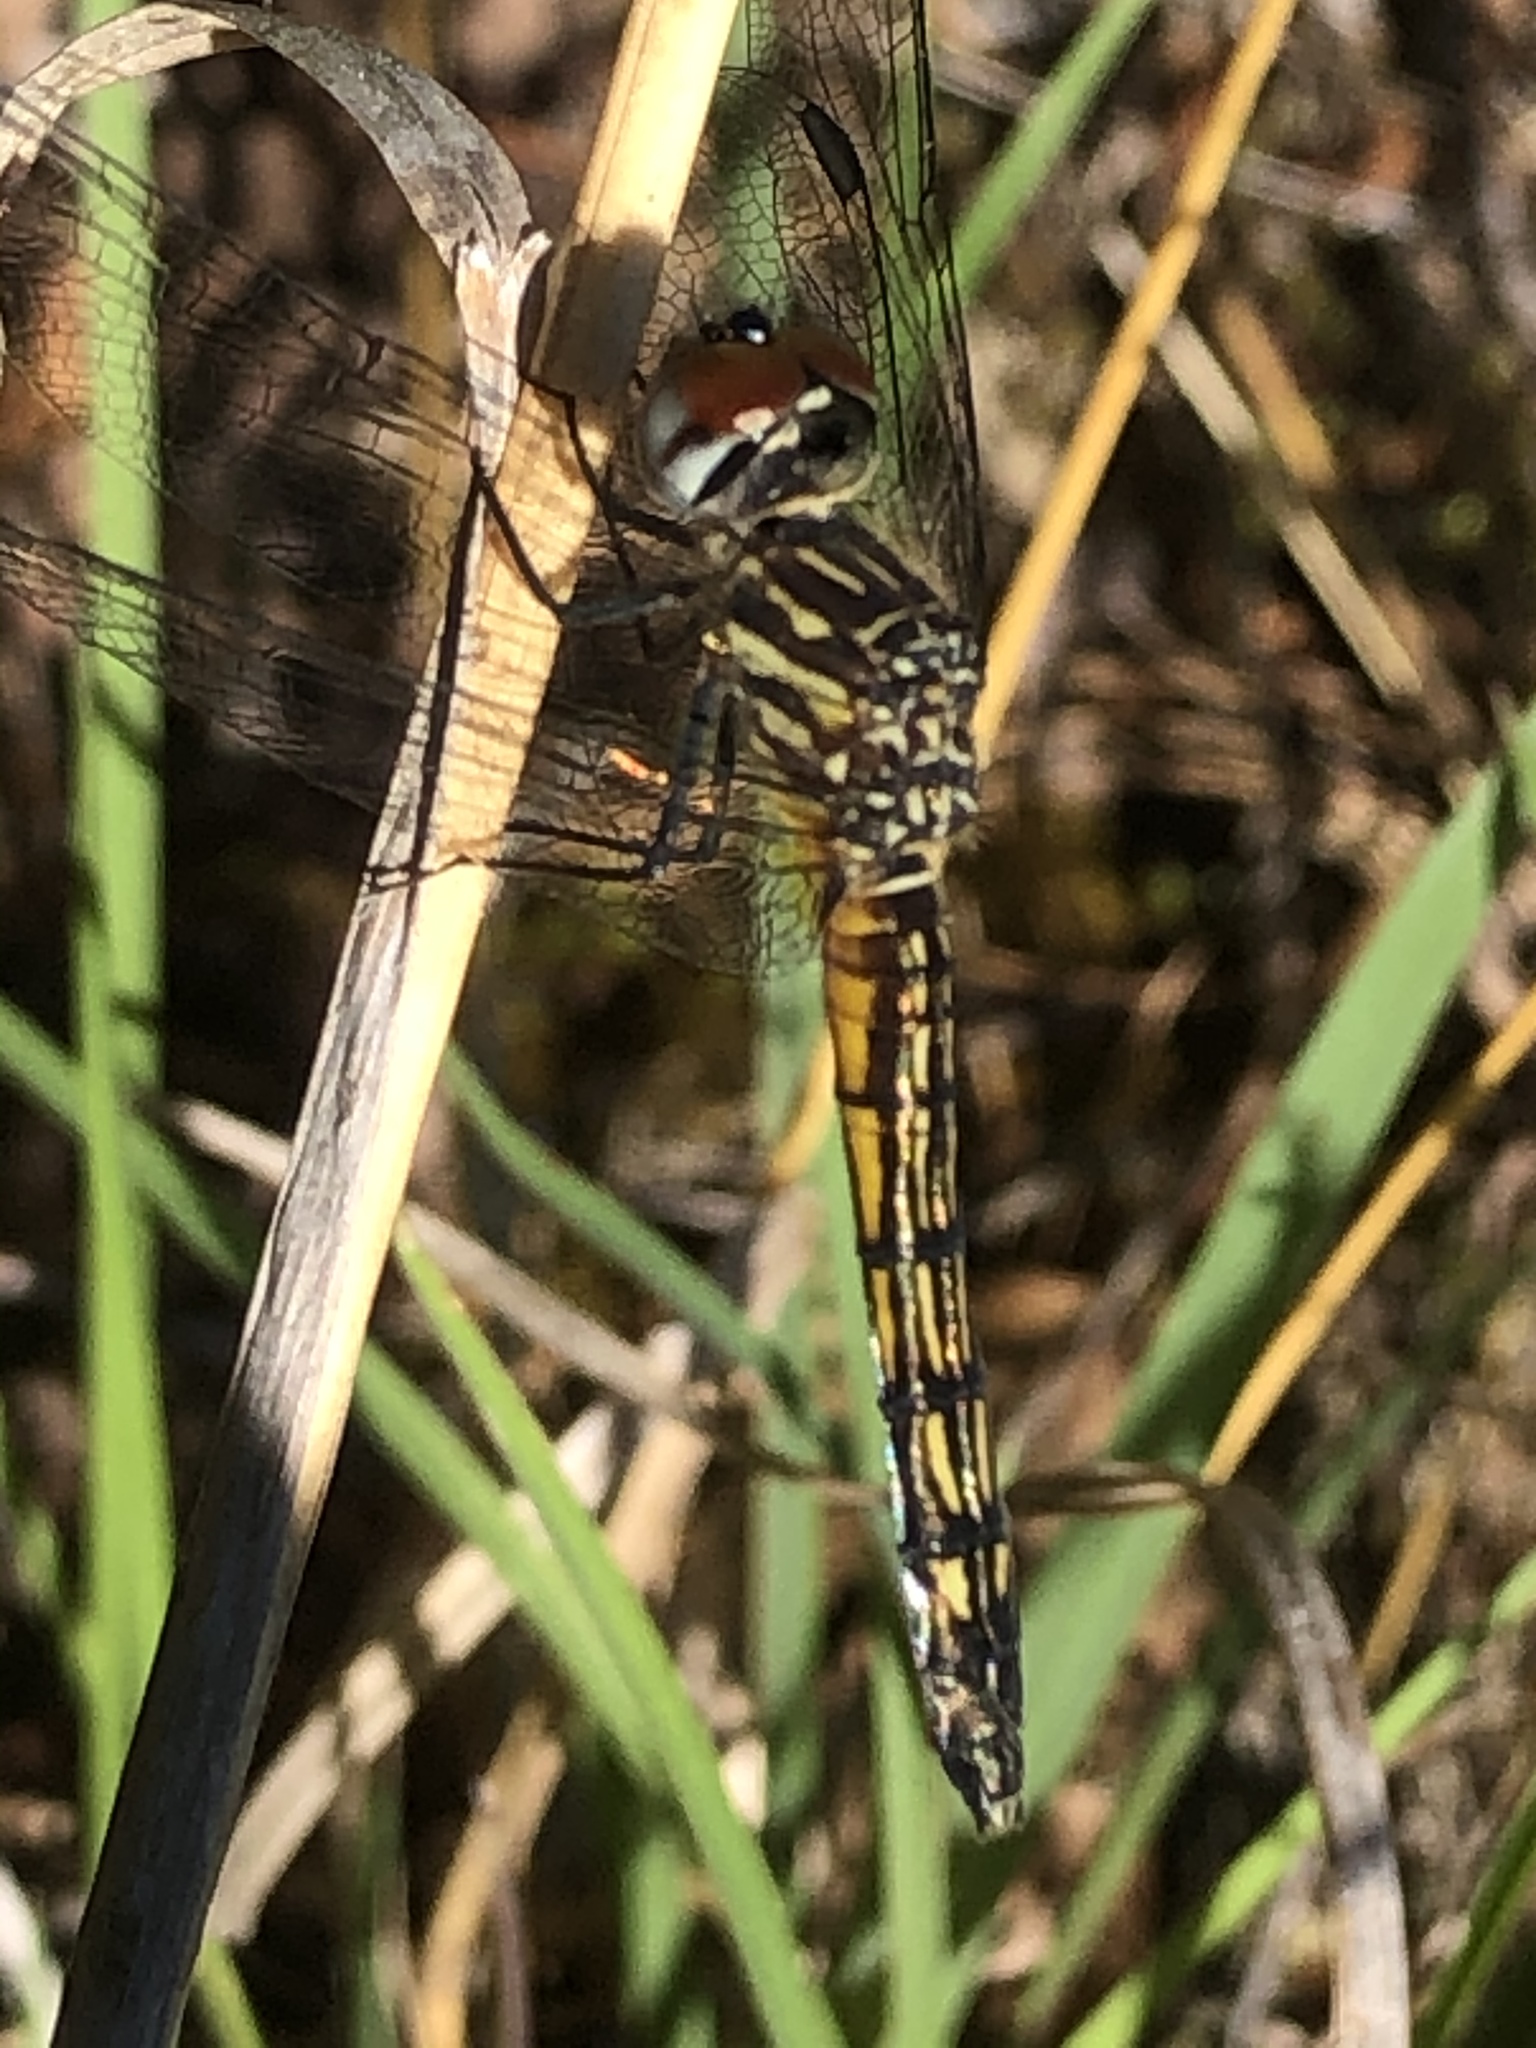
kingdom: Animalia
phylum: Arthropoda
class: Insecta
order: Odonata
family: Libellulidae
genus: Pachydiplax
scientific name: Pachydiplax longipennis
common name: Blue dasher
